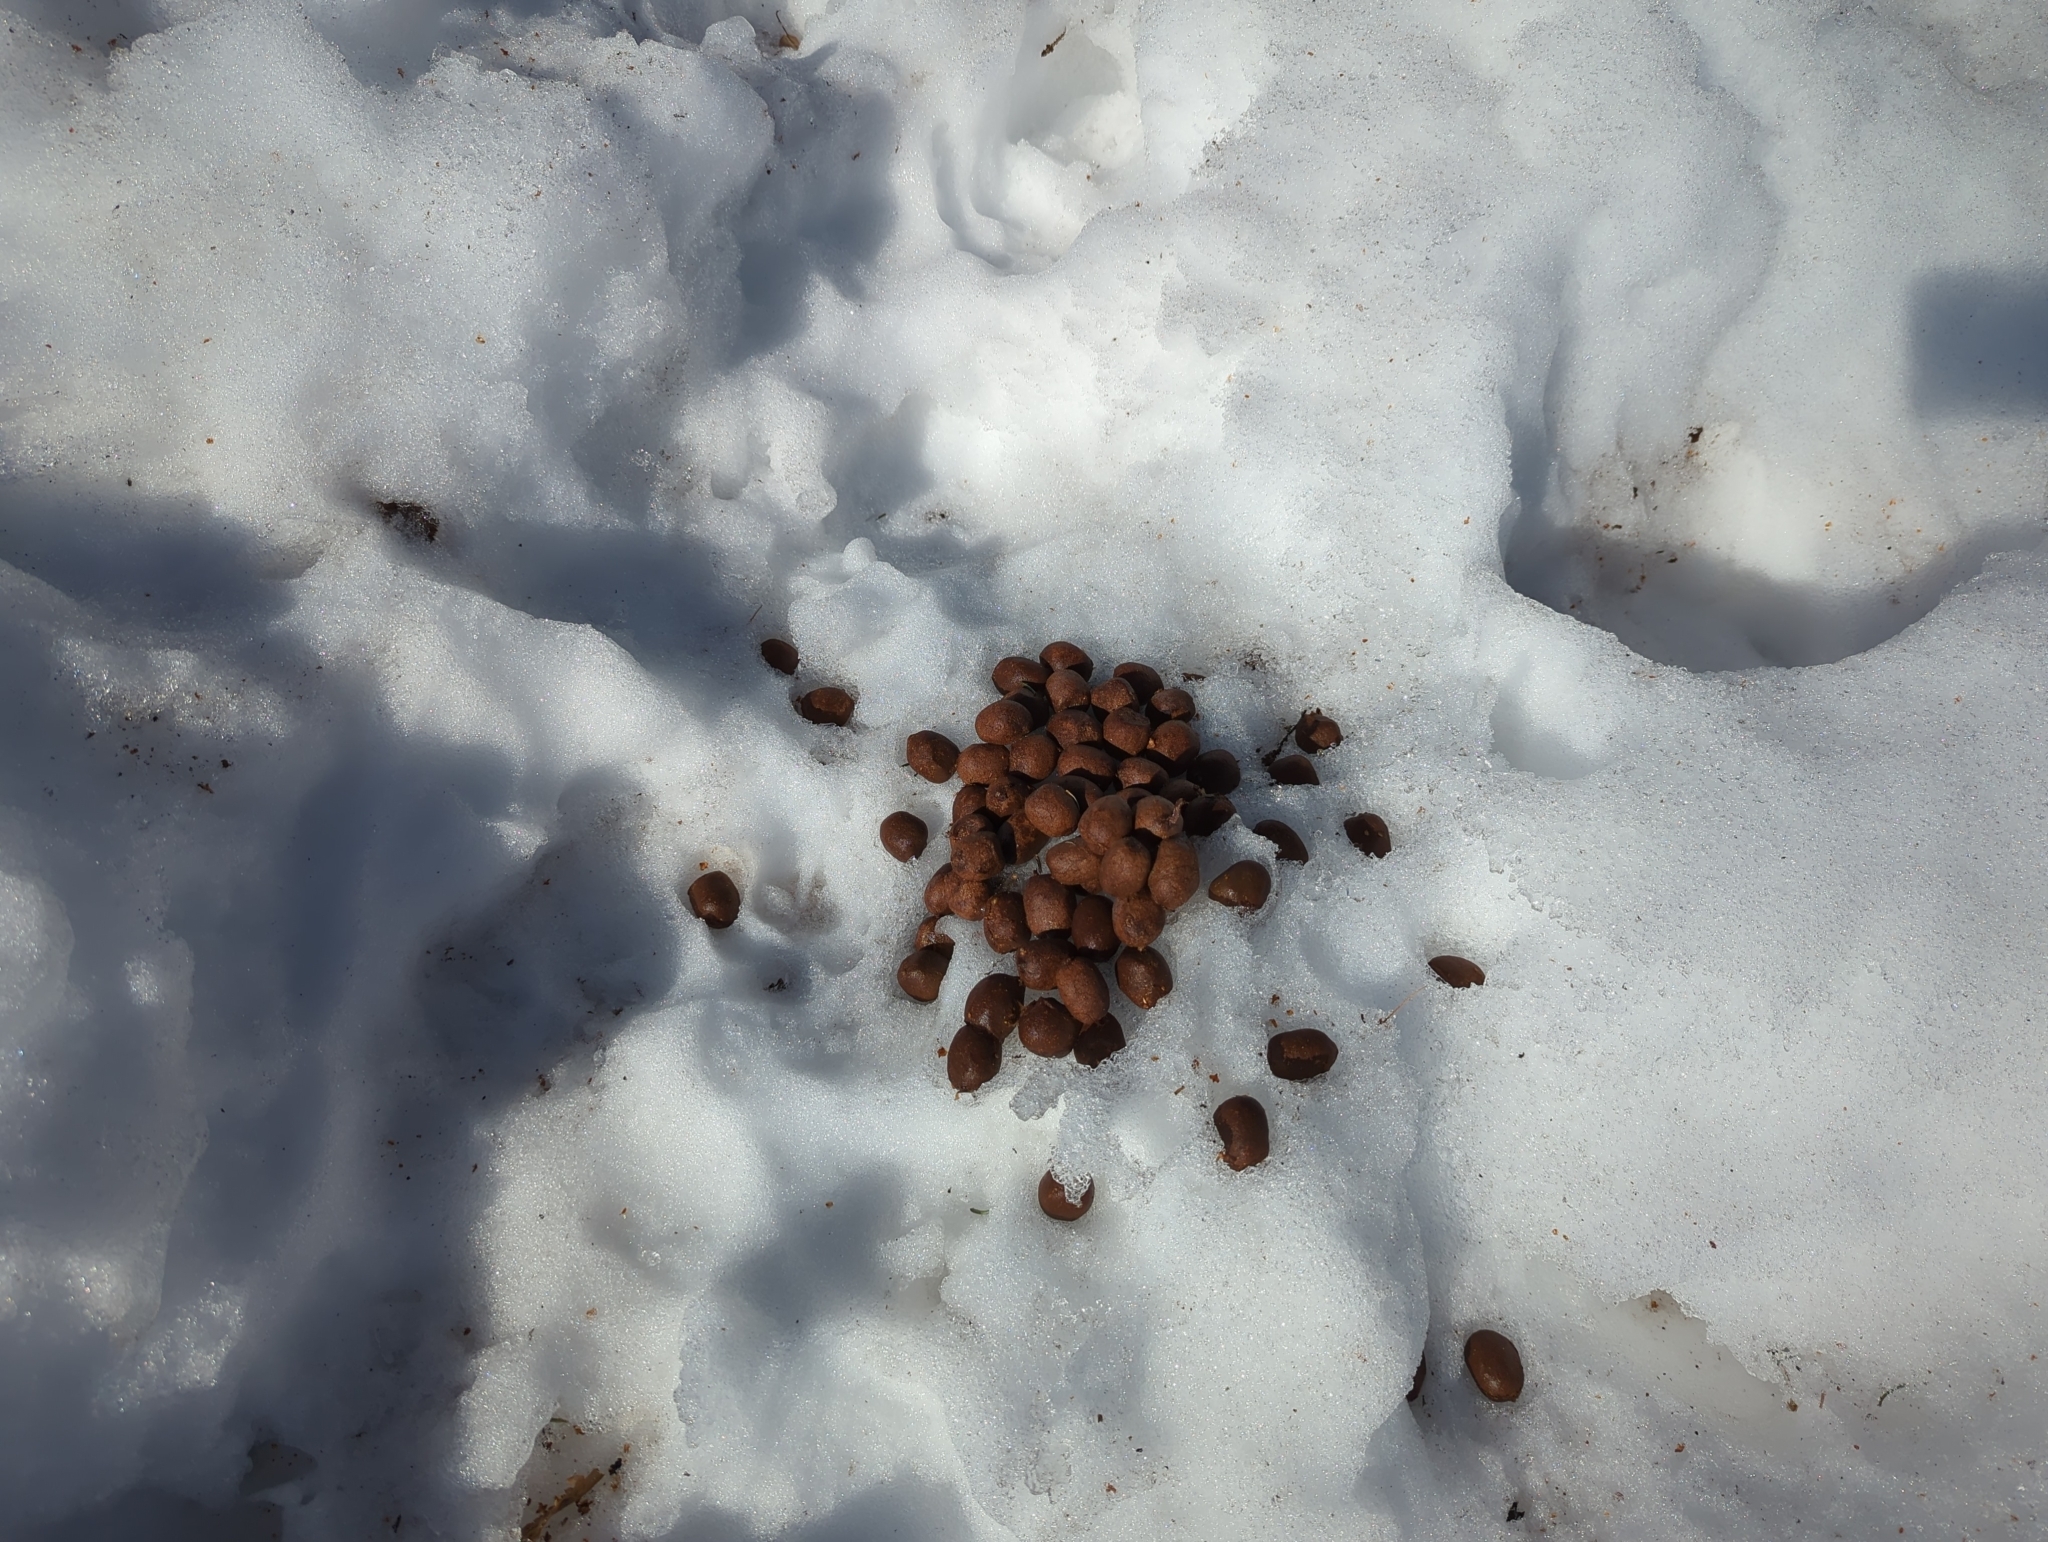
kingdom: Animalia
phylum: Chordata
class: Mammalia
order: Artiodactyla
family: Cervidae
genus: Alces
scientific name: Alces alces
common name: Moose
